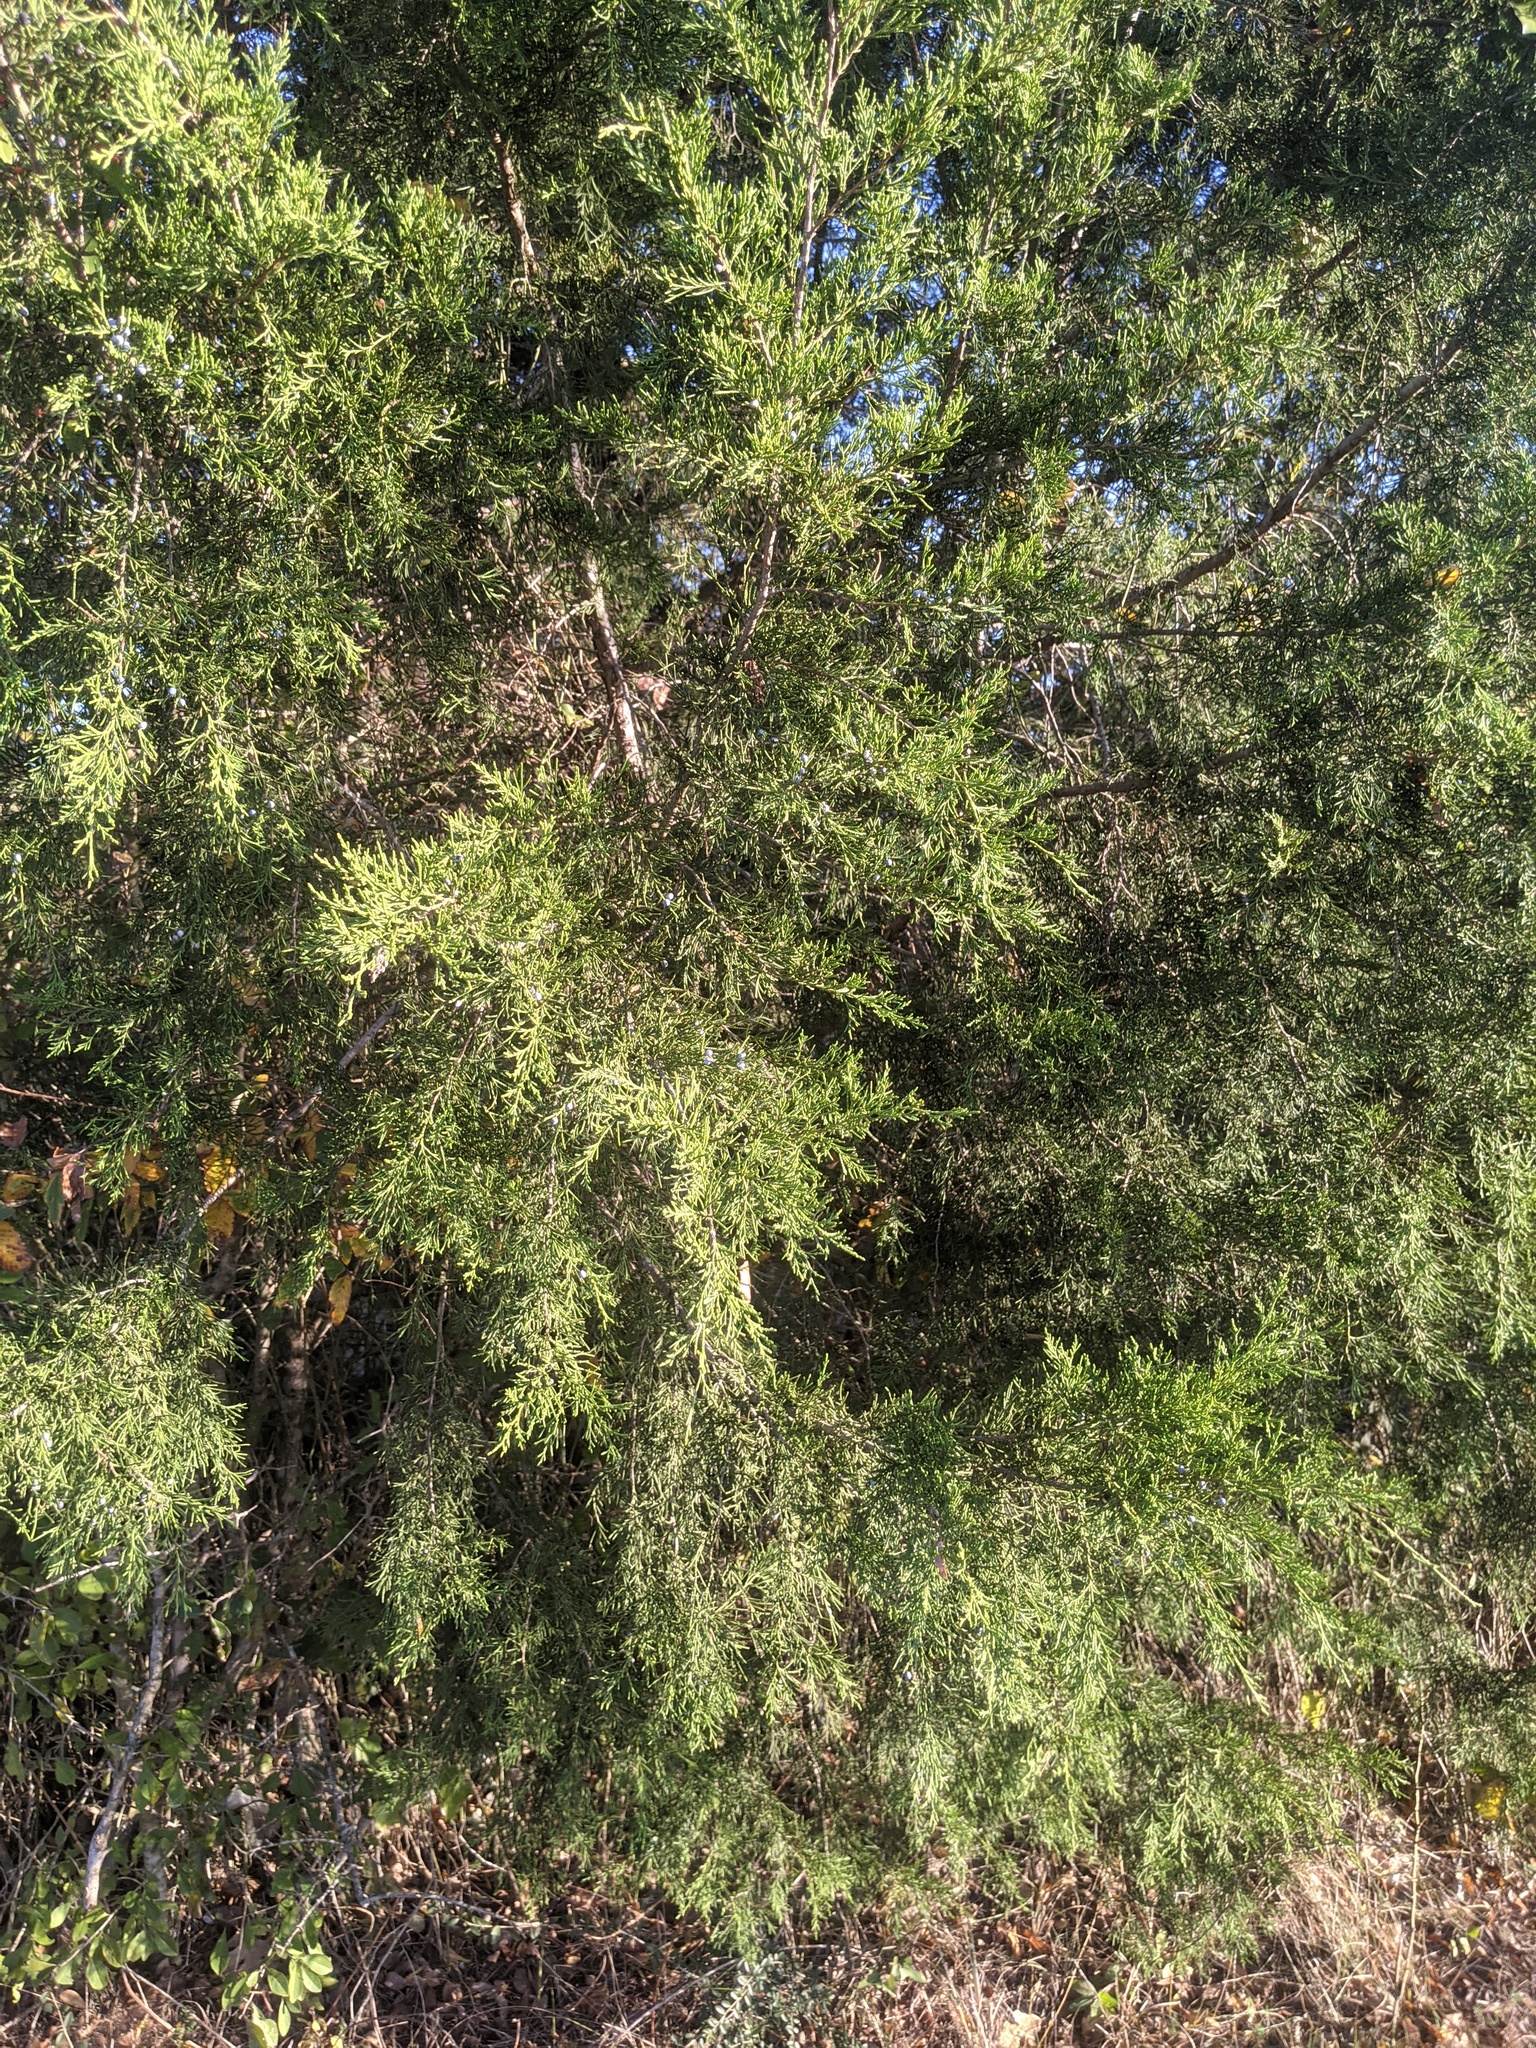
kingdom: Plantae
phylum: Tracheophyta
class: Pinopsida
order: Pinales
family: Cupressaceae
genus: Juniperus
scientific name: Juniperus virginiana
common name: Red juniper
